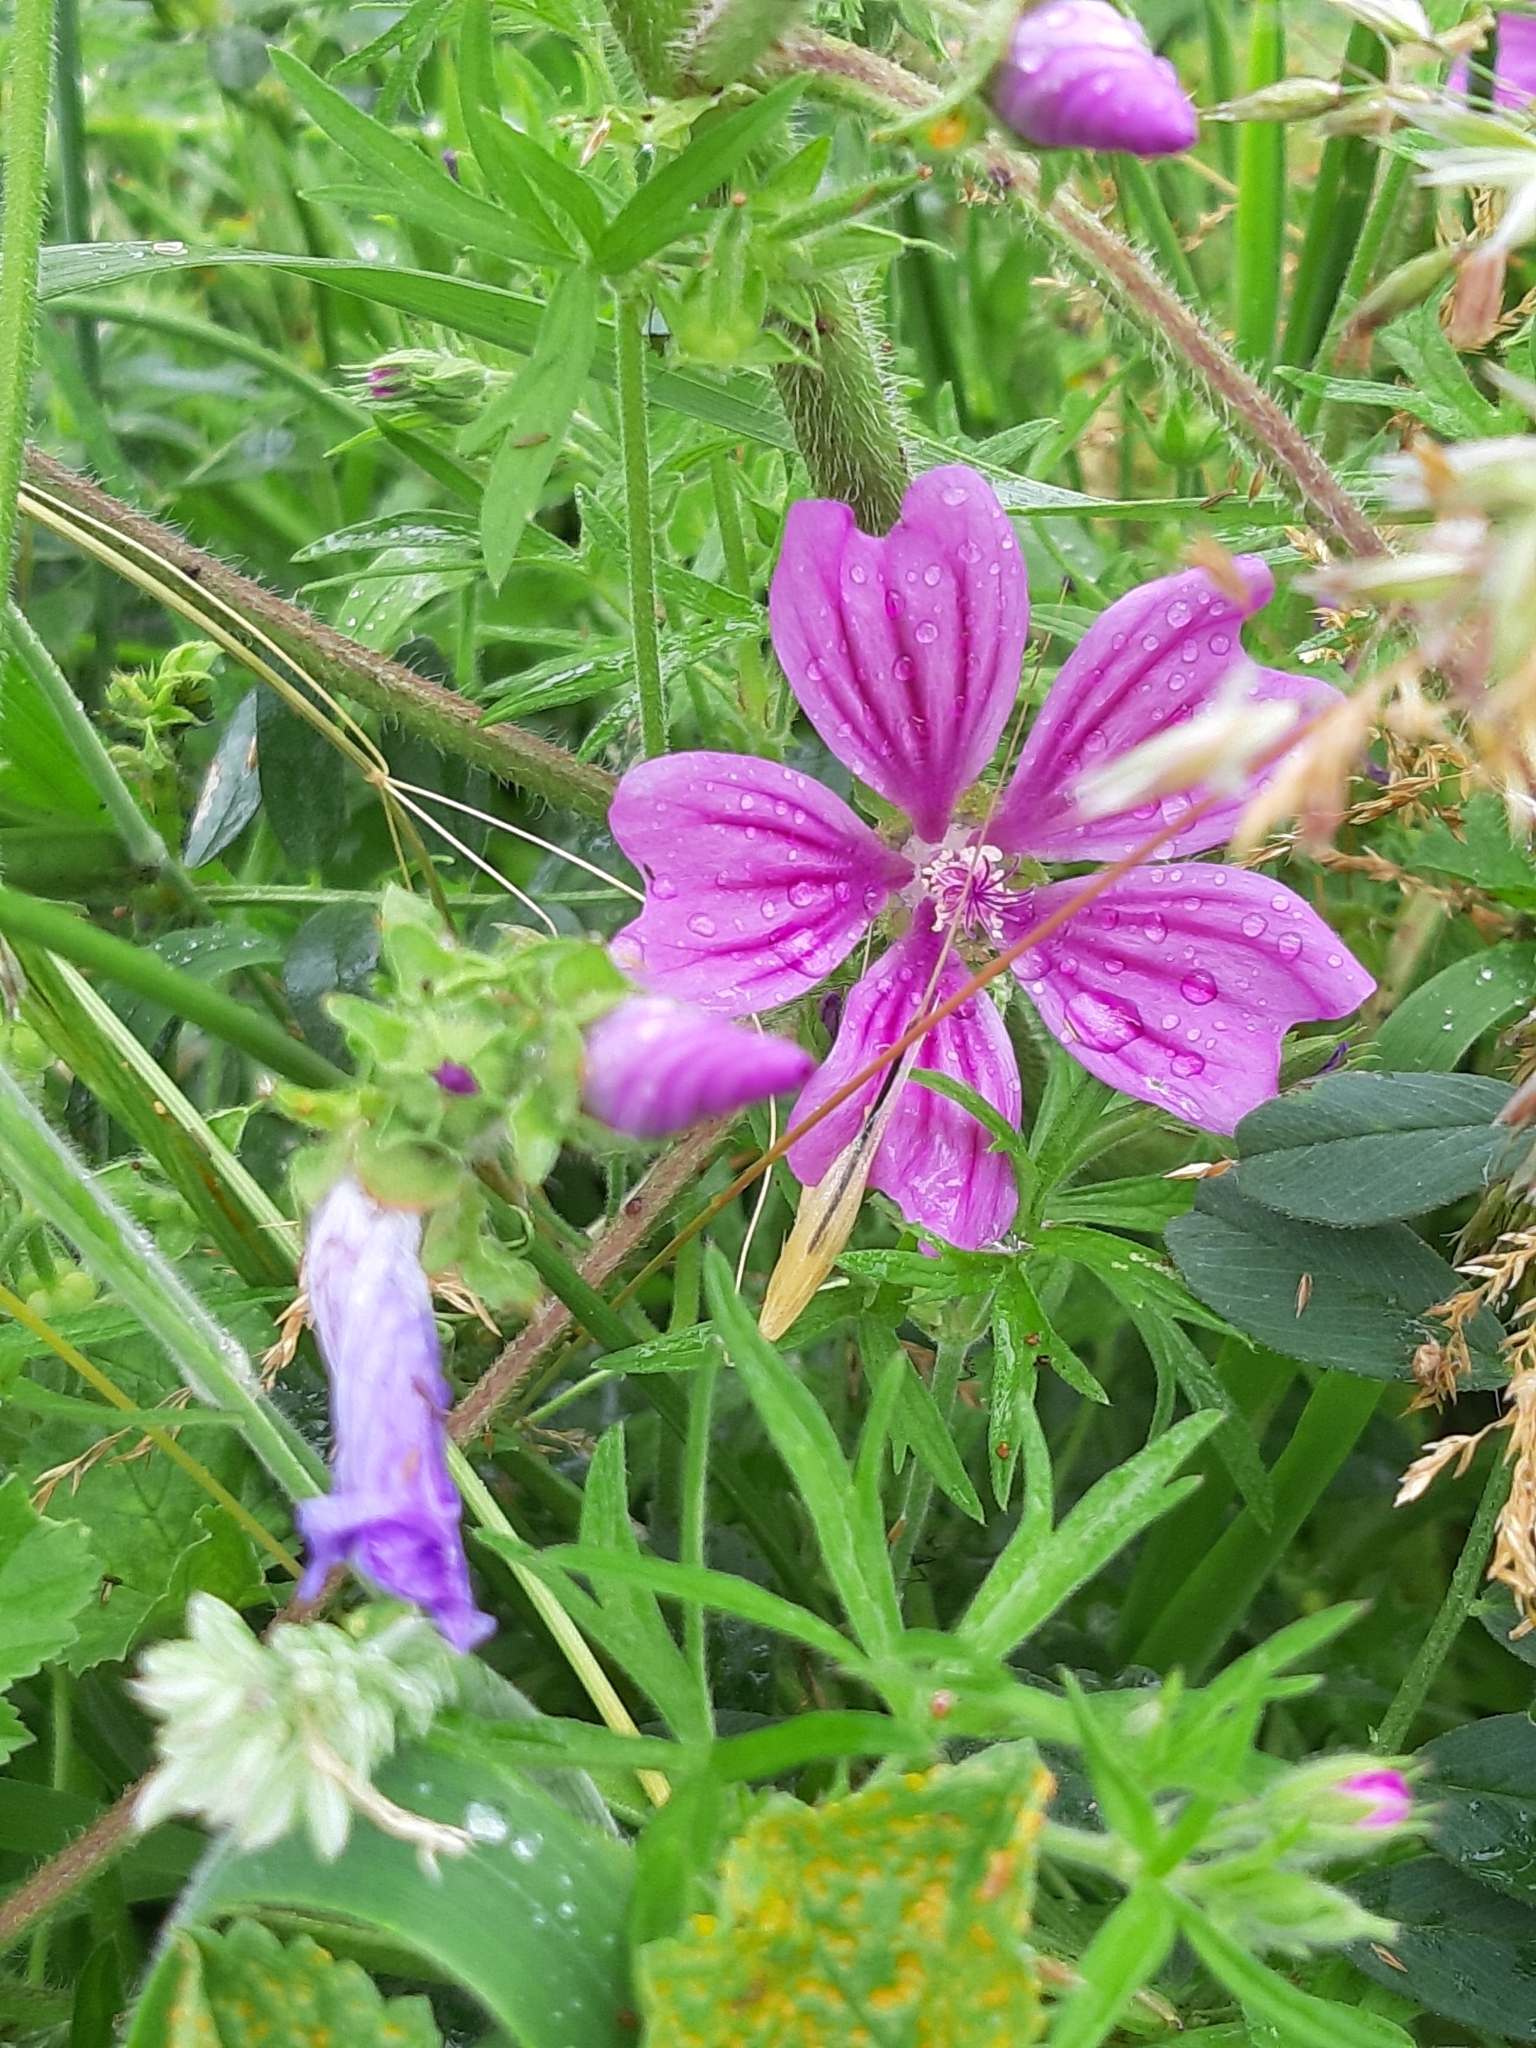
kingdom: Plantae
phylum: Tracheophyta
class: Magnoliopsida
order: Malvales
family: Malvaceae
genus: Malva
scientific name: Malva sylvestris
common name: Common mallow
